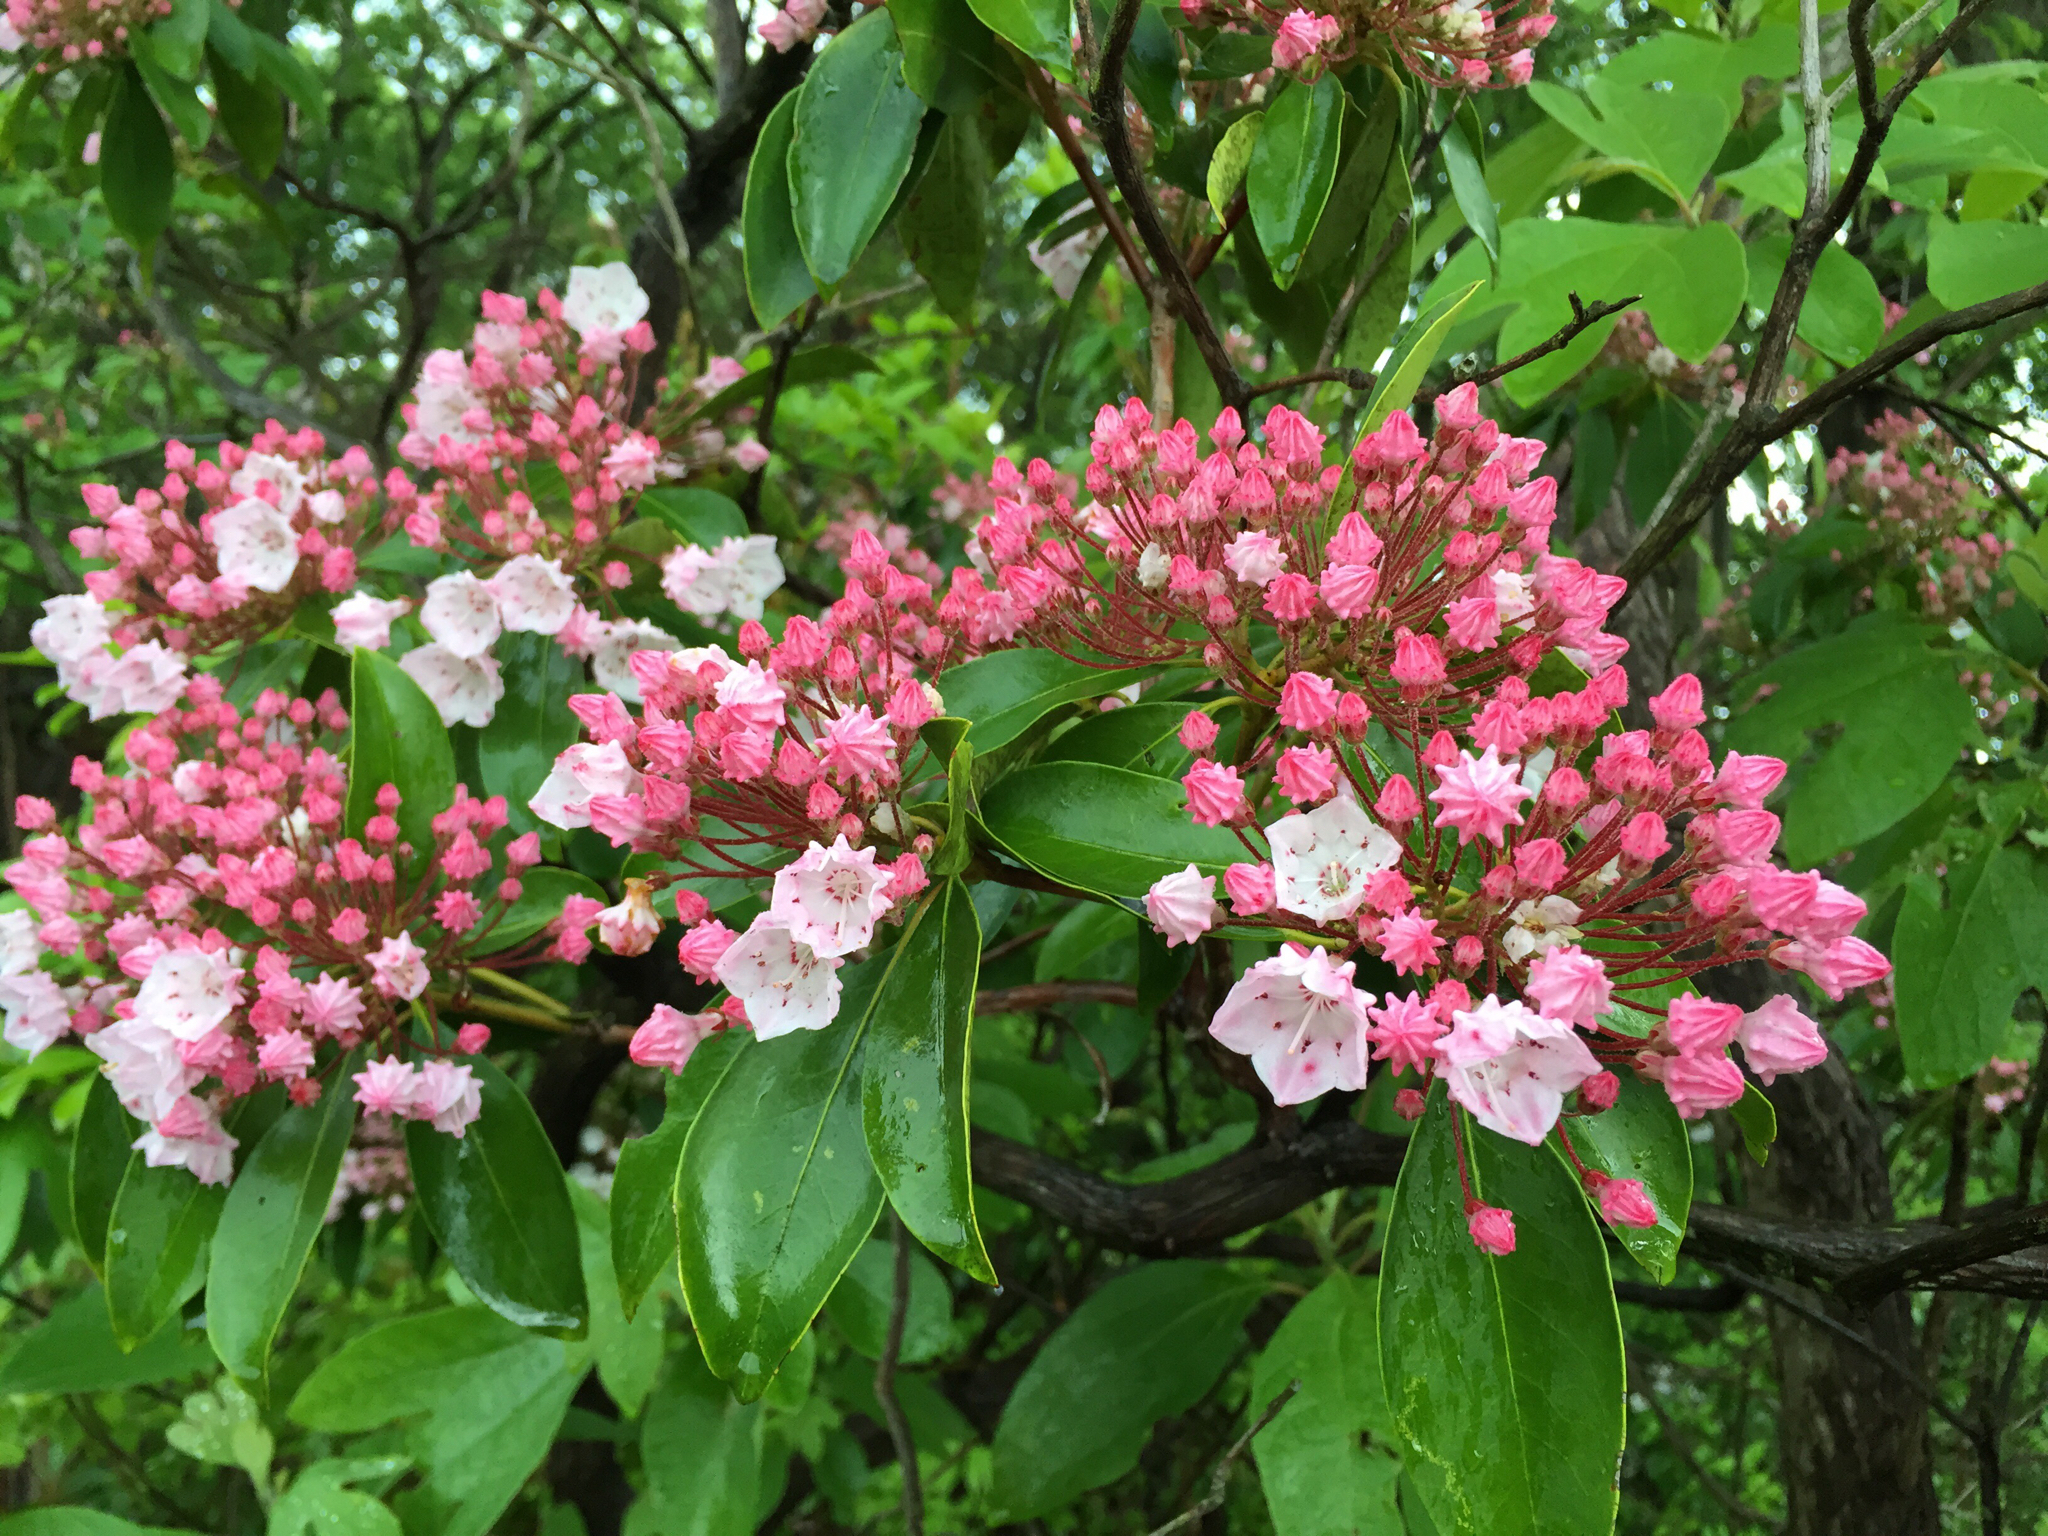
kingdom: Plantae
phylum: Tracheophyta
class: Magnoliopsida
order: Ericales
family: Ericaceae
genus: Kalmia
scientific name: Kalmia latifolia
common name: Mountain-laurel
